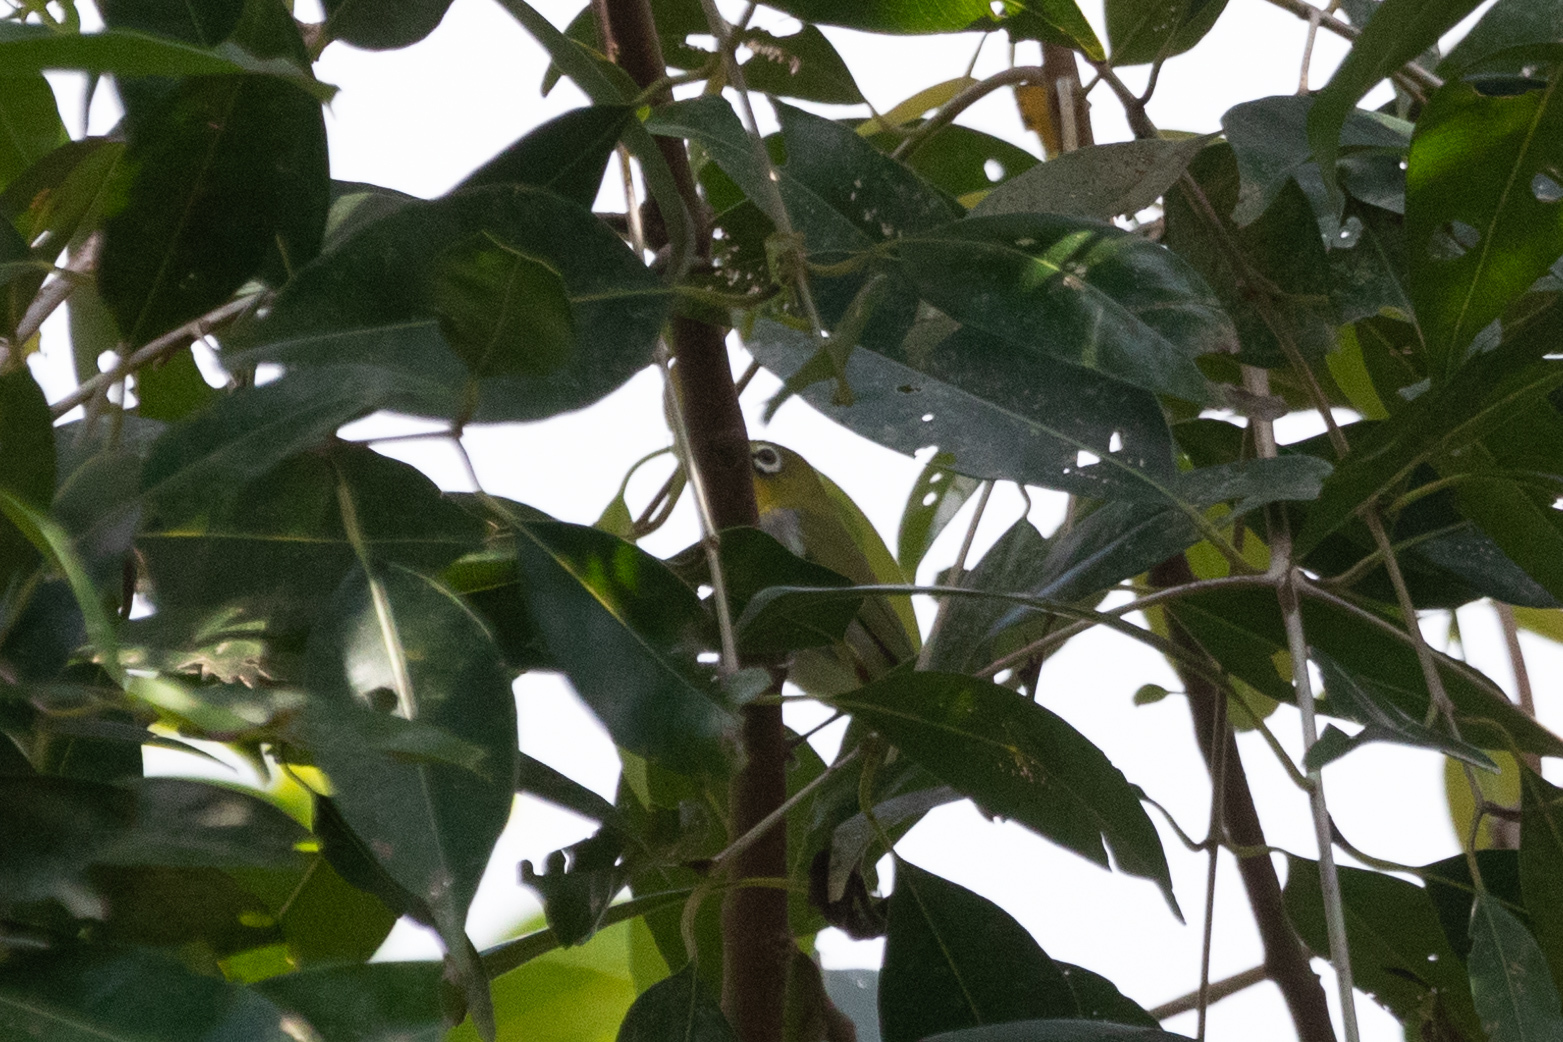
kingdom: Animalia
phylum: Chordata
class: Aves
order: Passeriformes
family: Zosteropidae
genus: Zosterops
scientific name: Zosterops simplex
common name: Swinhoe's white-eye
